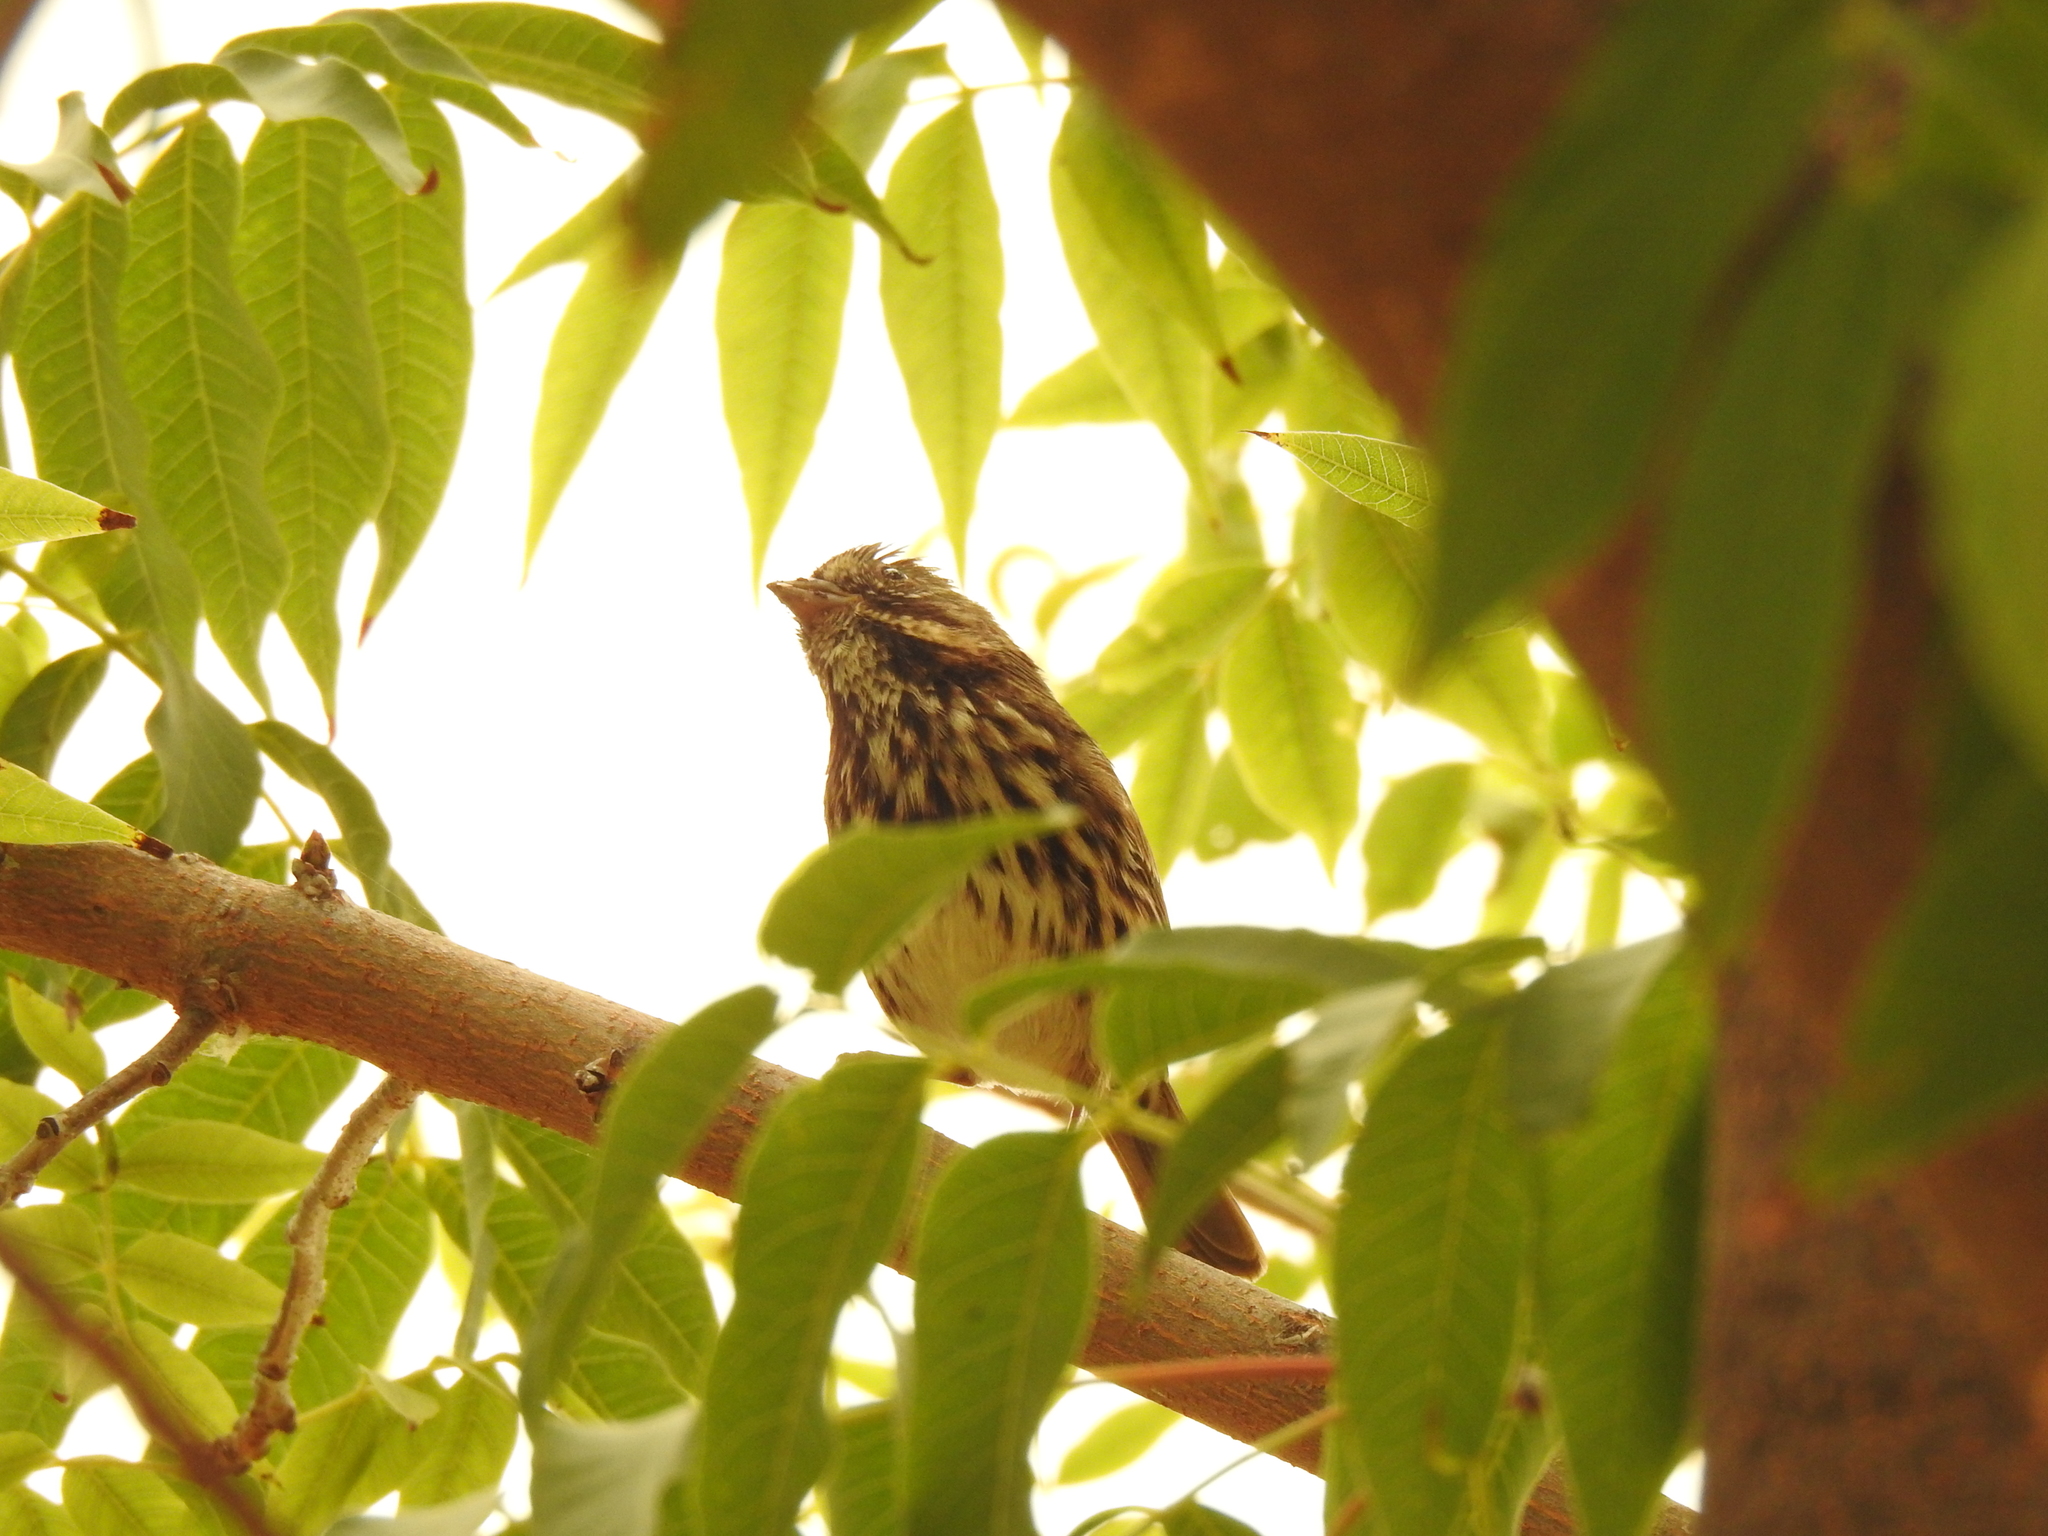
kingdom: Animalia
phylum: Chordata
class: Aves
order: Passeriformes
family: Fringillidae
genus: Haemorhous
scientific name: Haemorhous purpureus
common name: Purple finch
